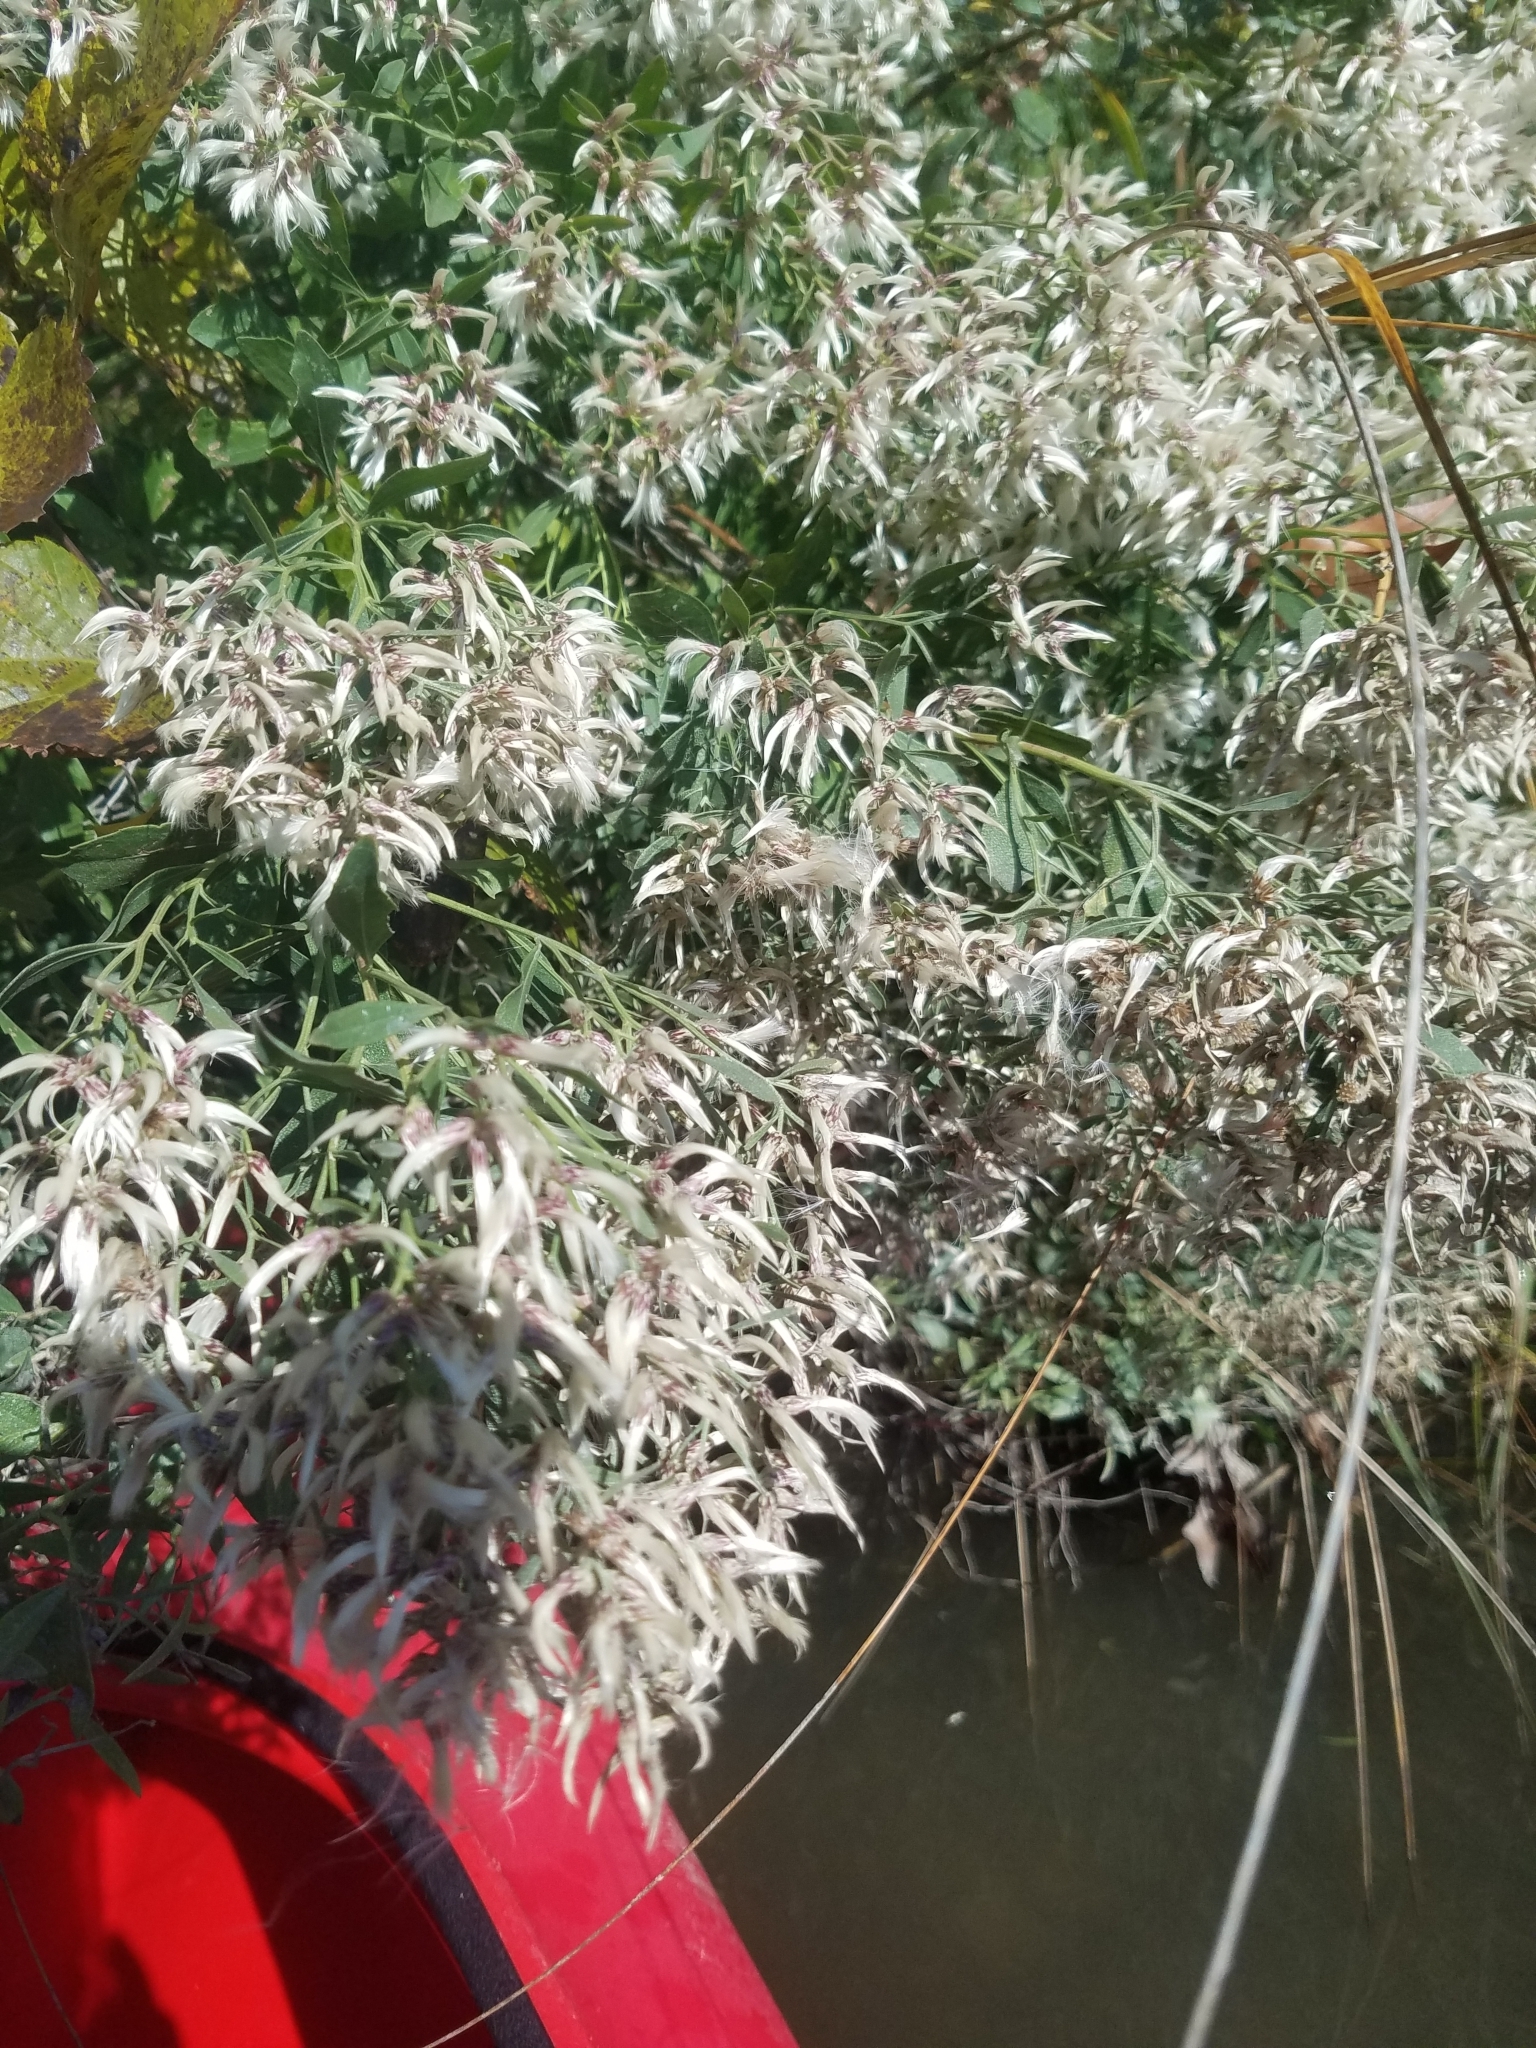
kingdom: Plantae
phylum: Tracheophyta
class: Magnoliopsida
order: Asterales
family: Asteraceae
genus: Baccharis
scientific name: Baccharis halimifolia
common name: Eastern baccharis
